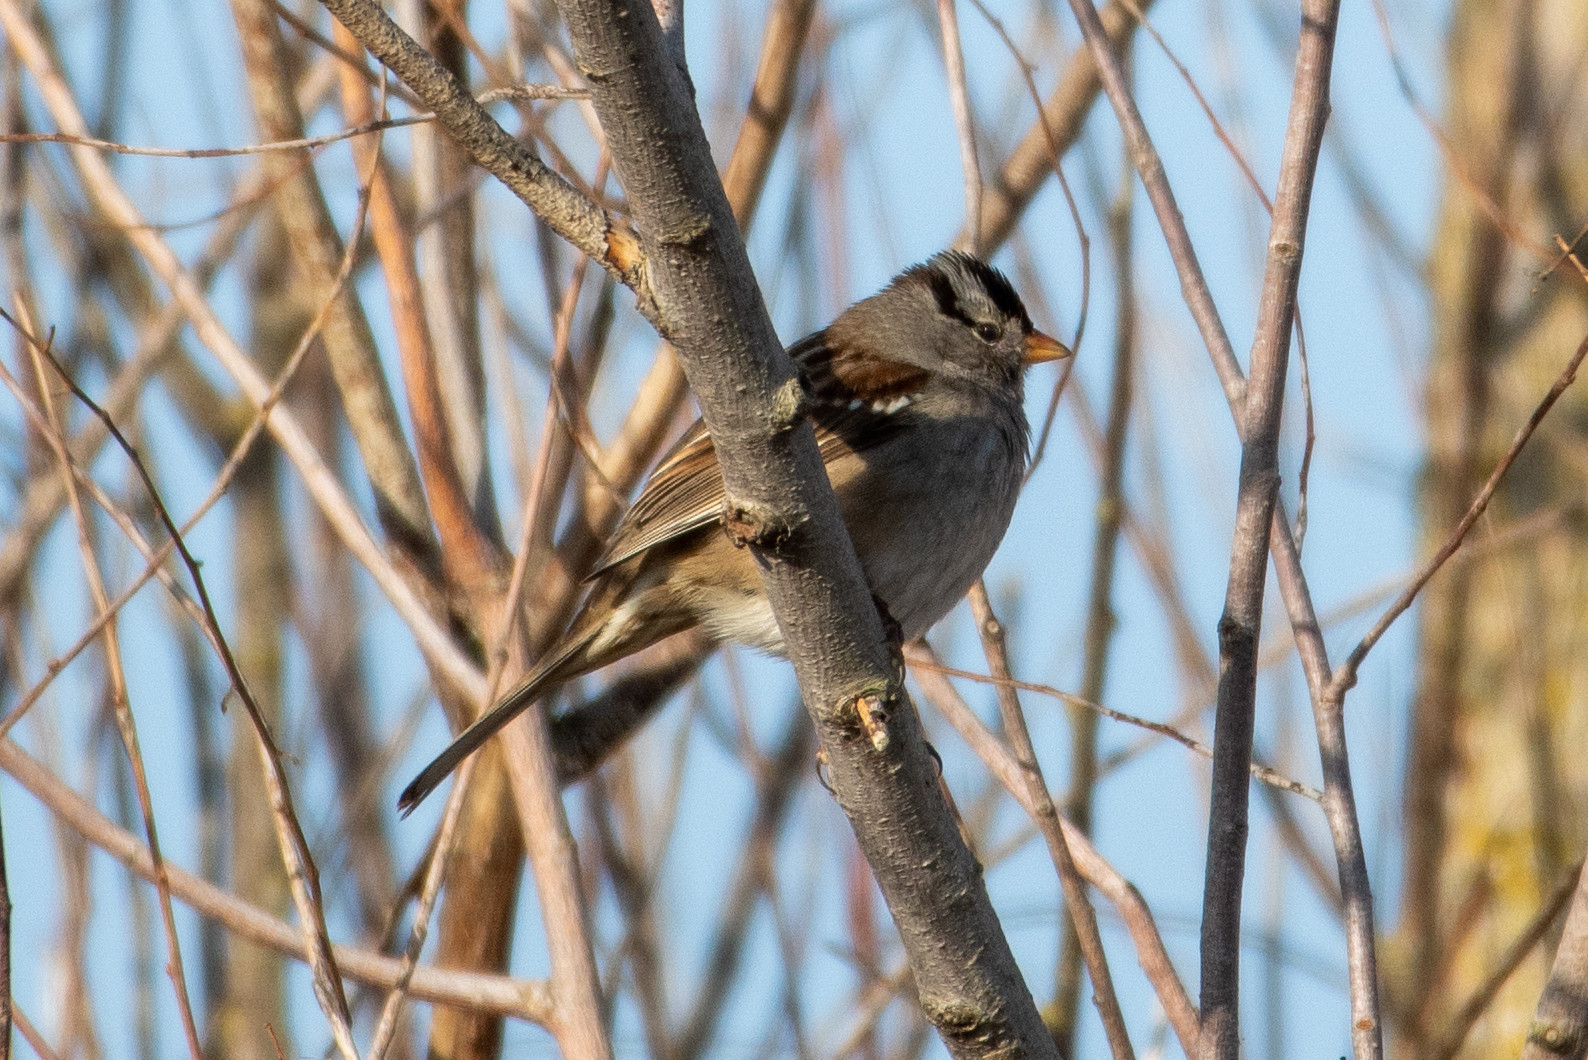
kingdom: Animalia
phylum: Chordata
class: Aves
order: Passeriformes
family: Passerellidae
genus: Zonotrichia
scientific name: Zonotrichia leucophrys
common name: White-crowned sparrow
